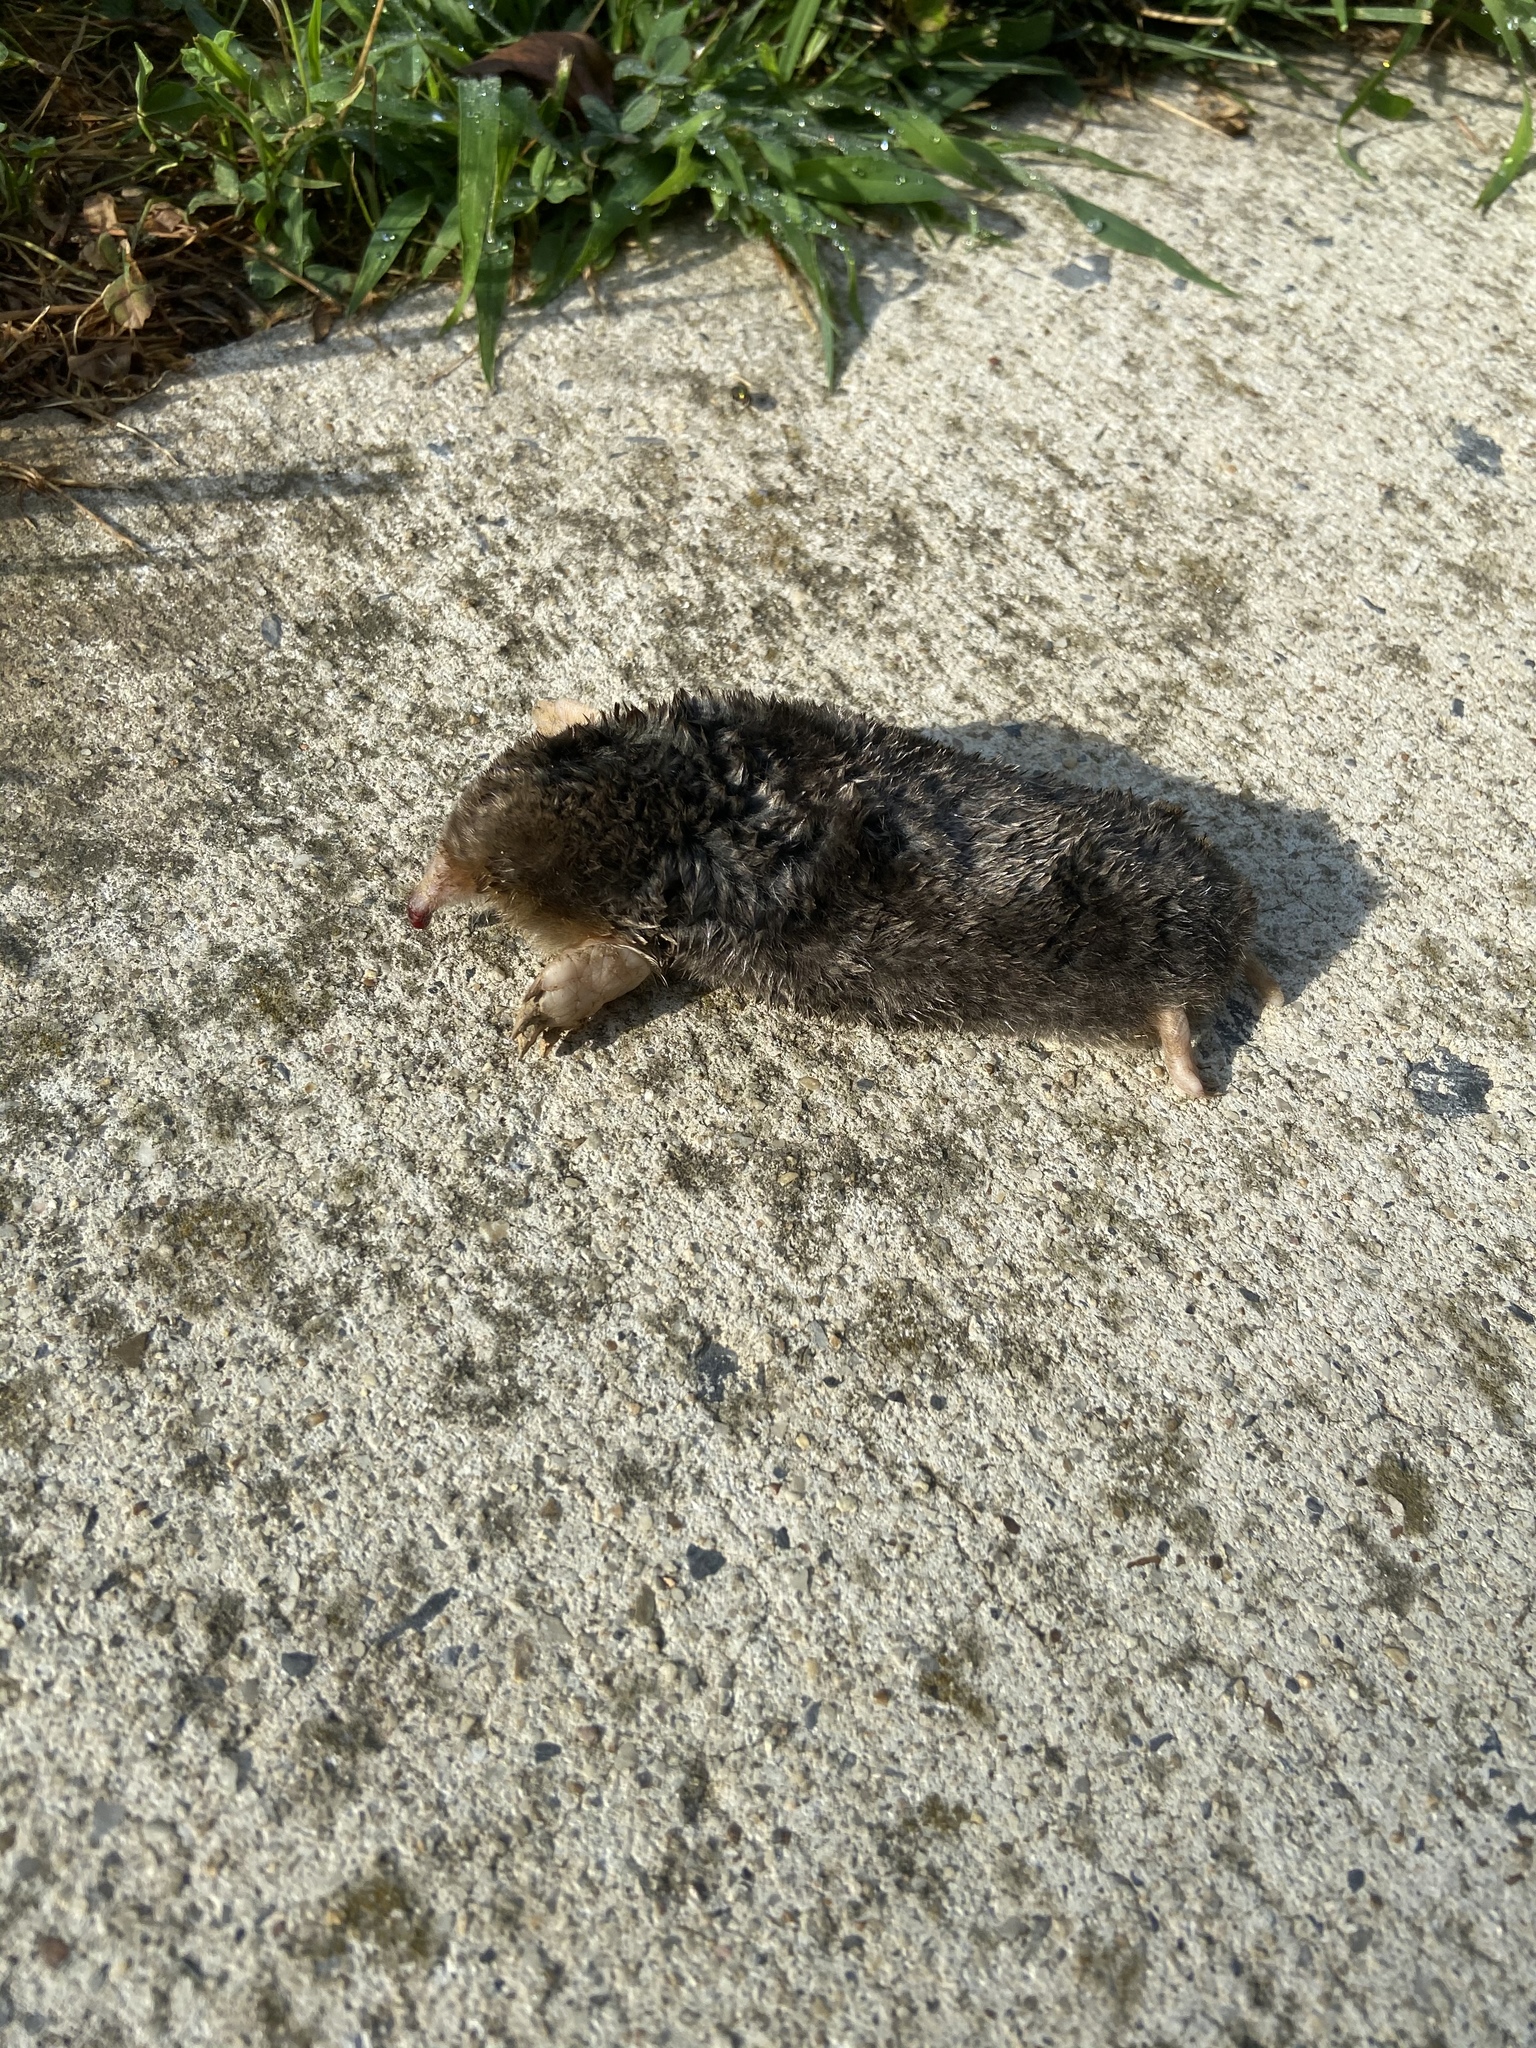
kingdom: Animalia
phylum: Chordata
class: Mammalia
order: Soricomorpha
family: Talpidae
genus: Scalopus
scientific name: Scalopus aquaticus
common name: Eastern mole
